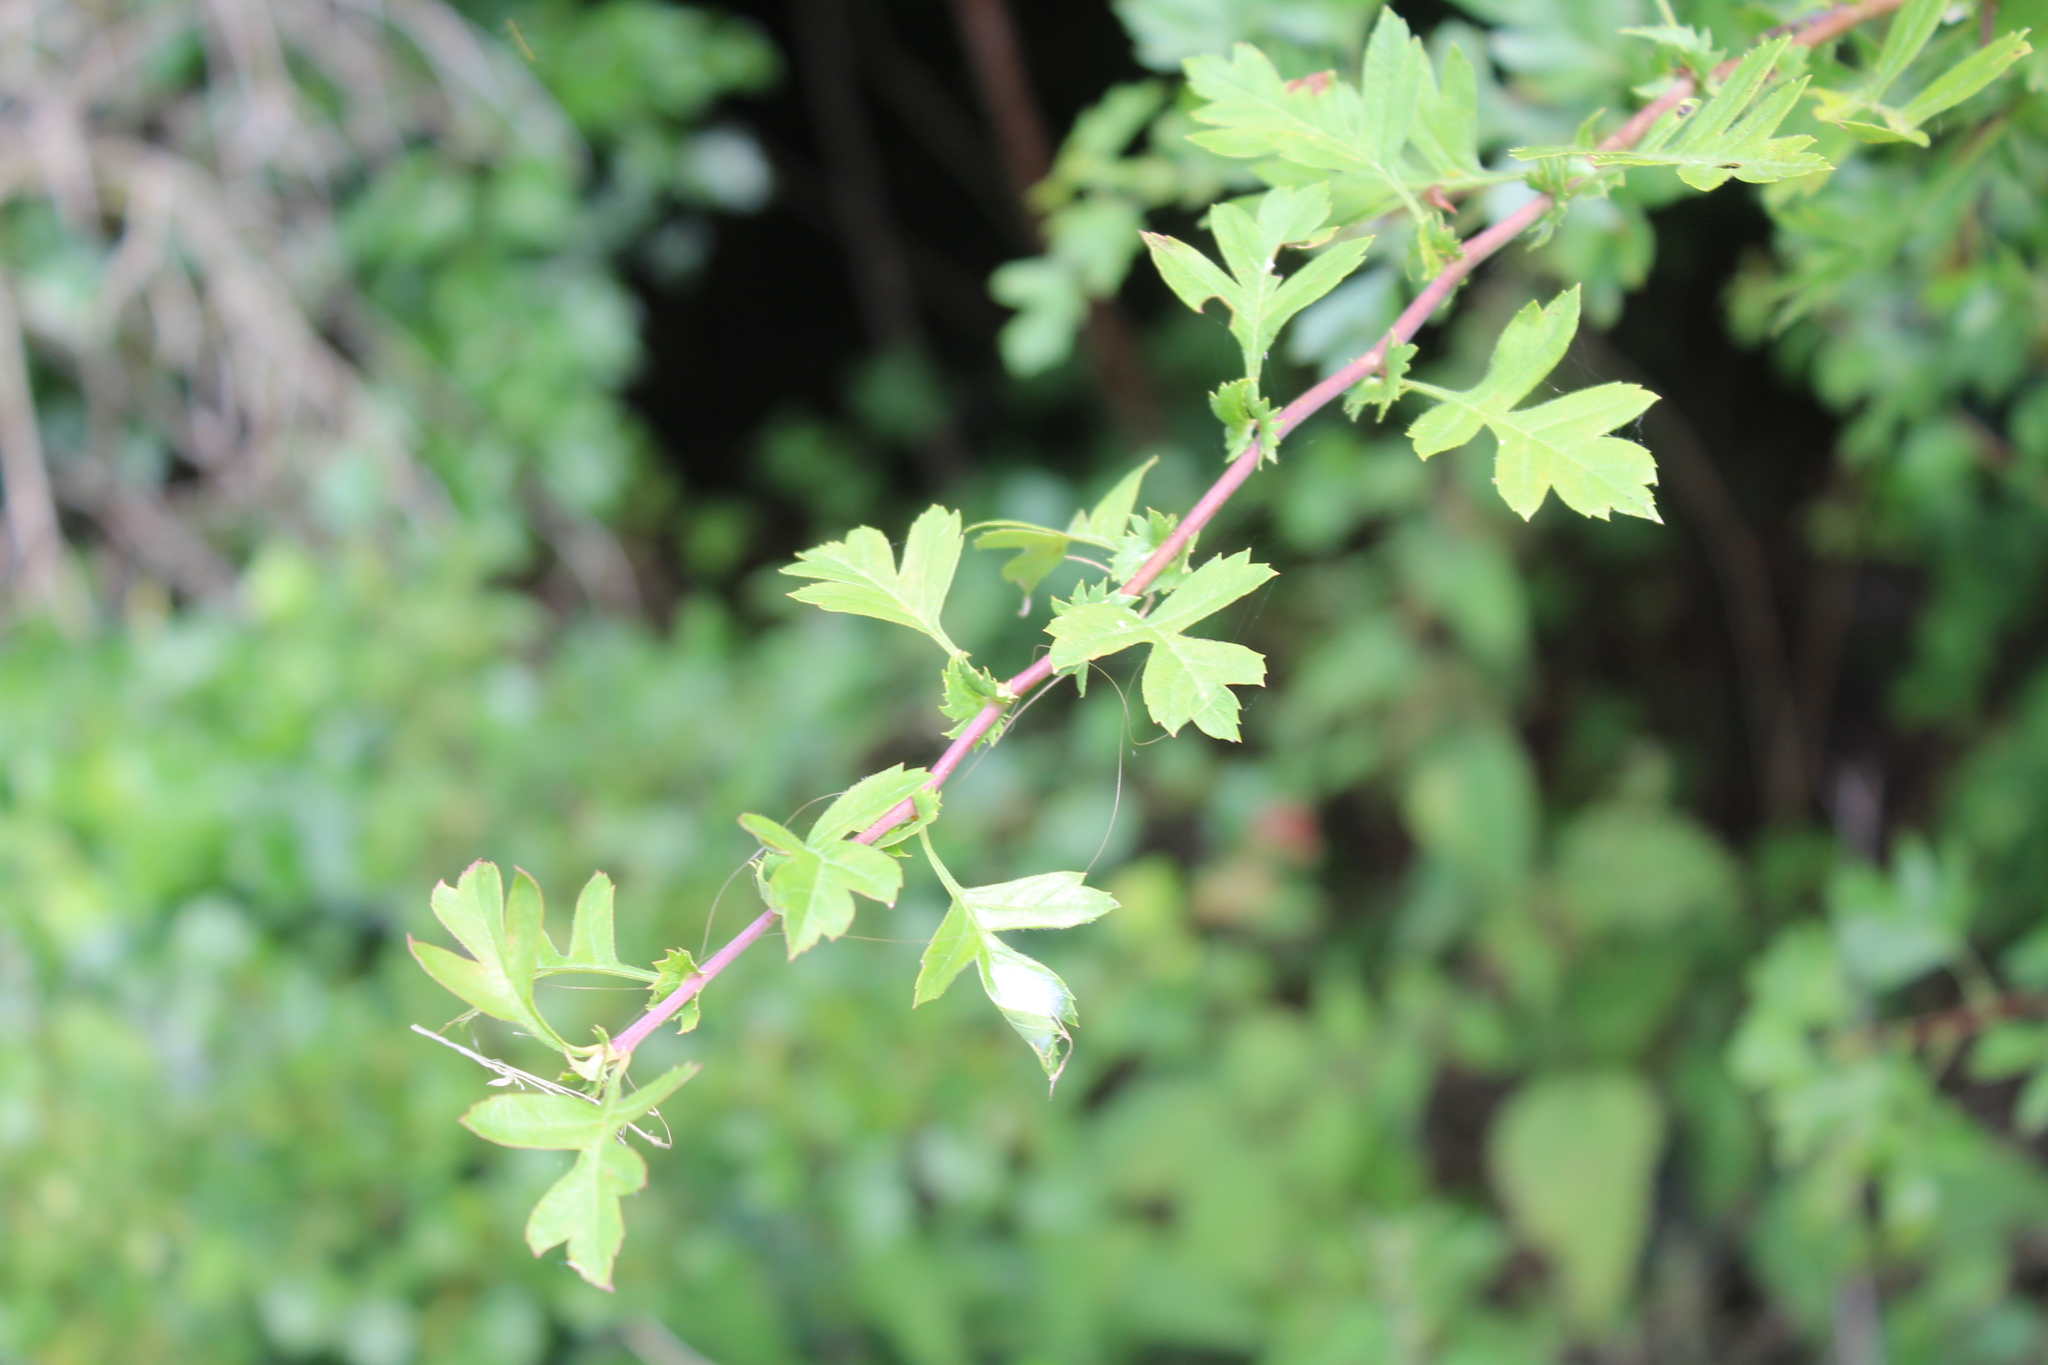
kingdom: Plantae
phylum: Tracheophyta
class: Magnoliopsida
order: Rosales
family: Rosaceae
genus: Crataegus
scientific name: Crataegus monogyna
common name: Hawthorn
